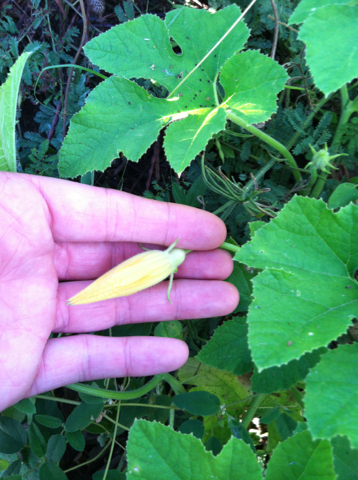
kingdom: Plantae
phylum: Tracheophyta
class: Magnoliopsida
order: Cucurbitales
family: Cucurbitaceae
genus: Cucurbita
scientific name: Cucurbita pepo
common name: Marrow
